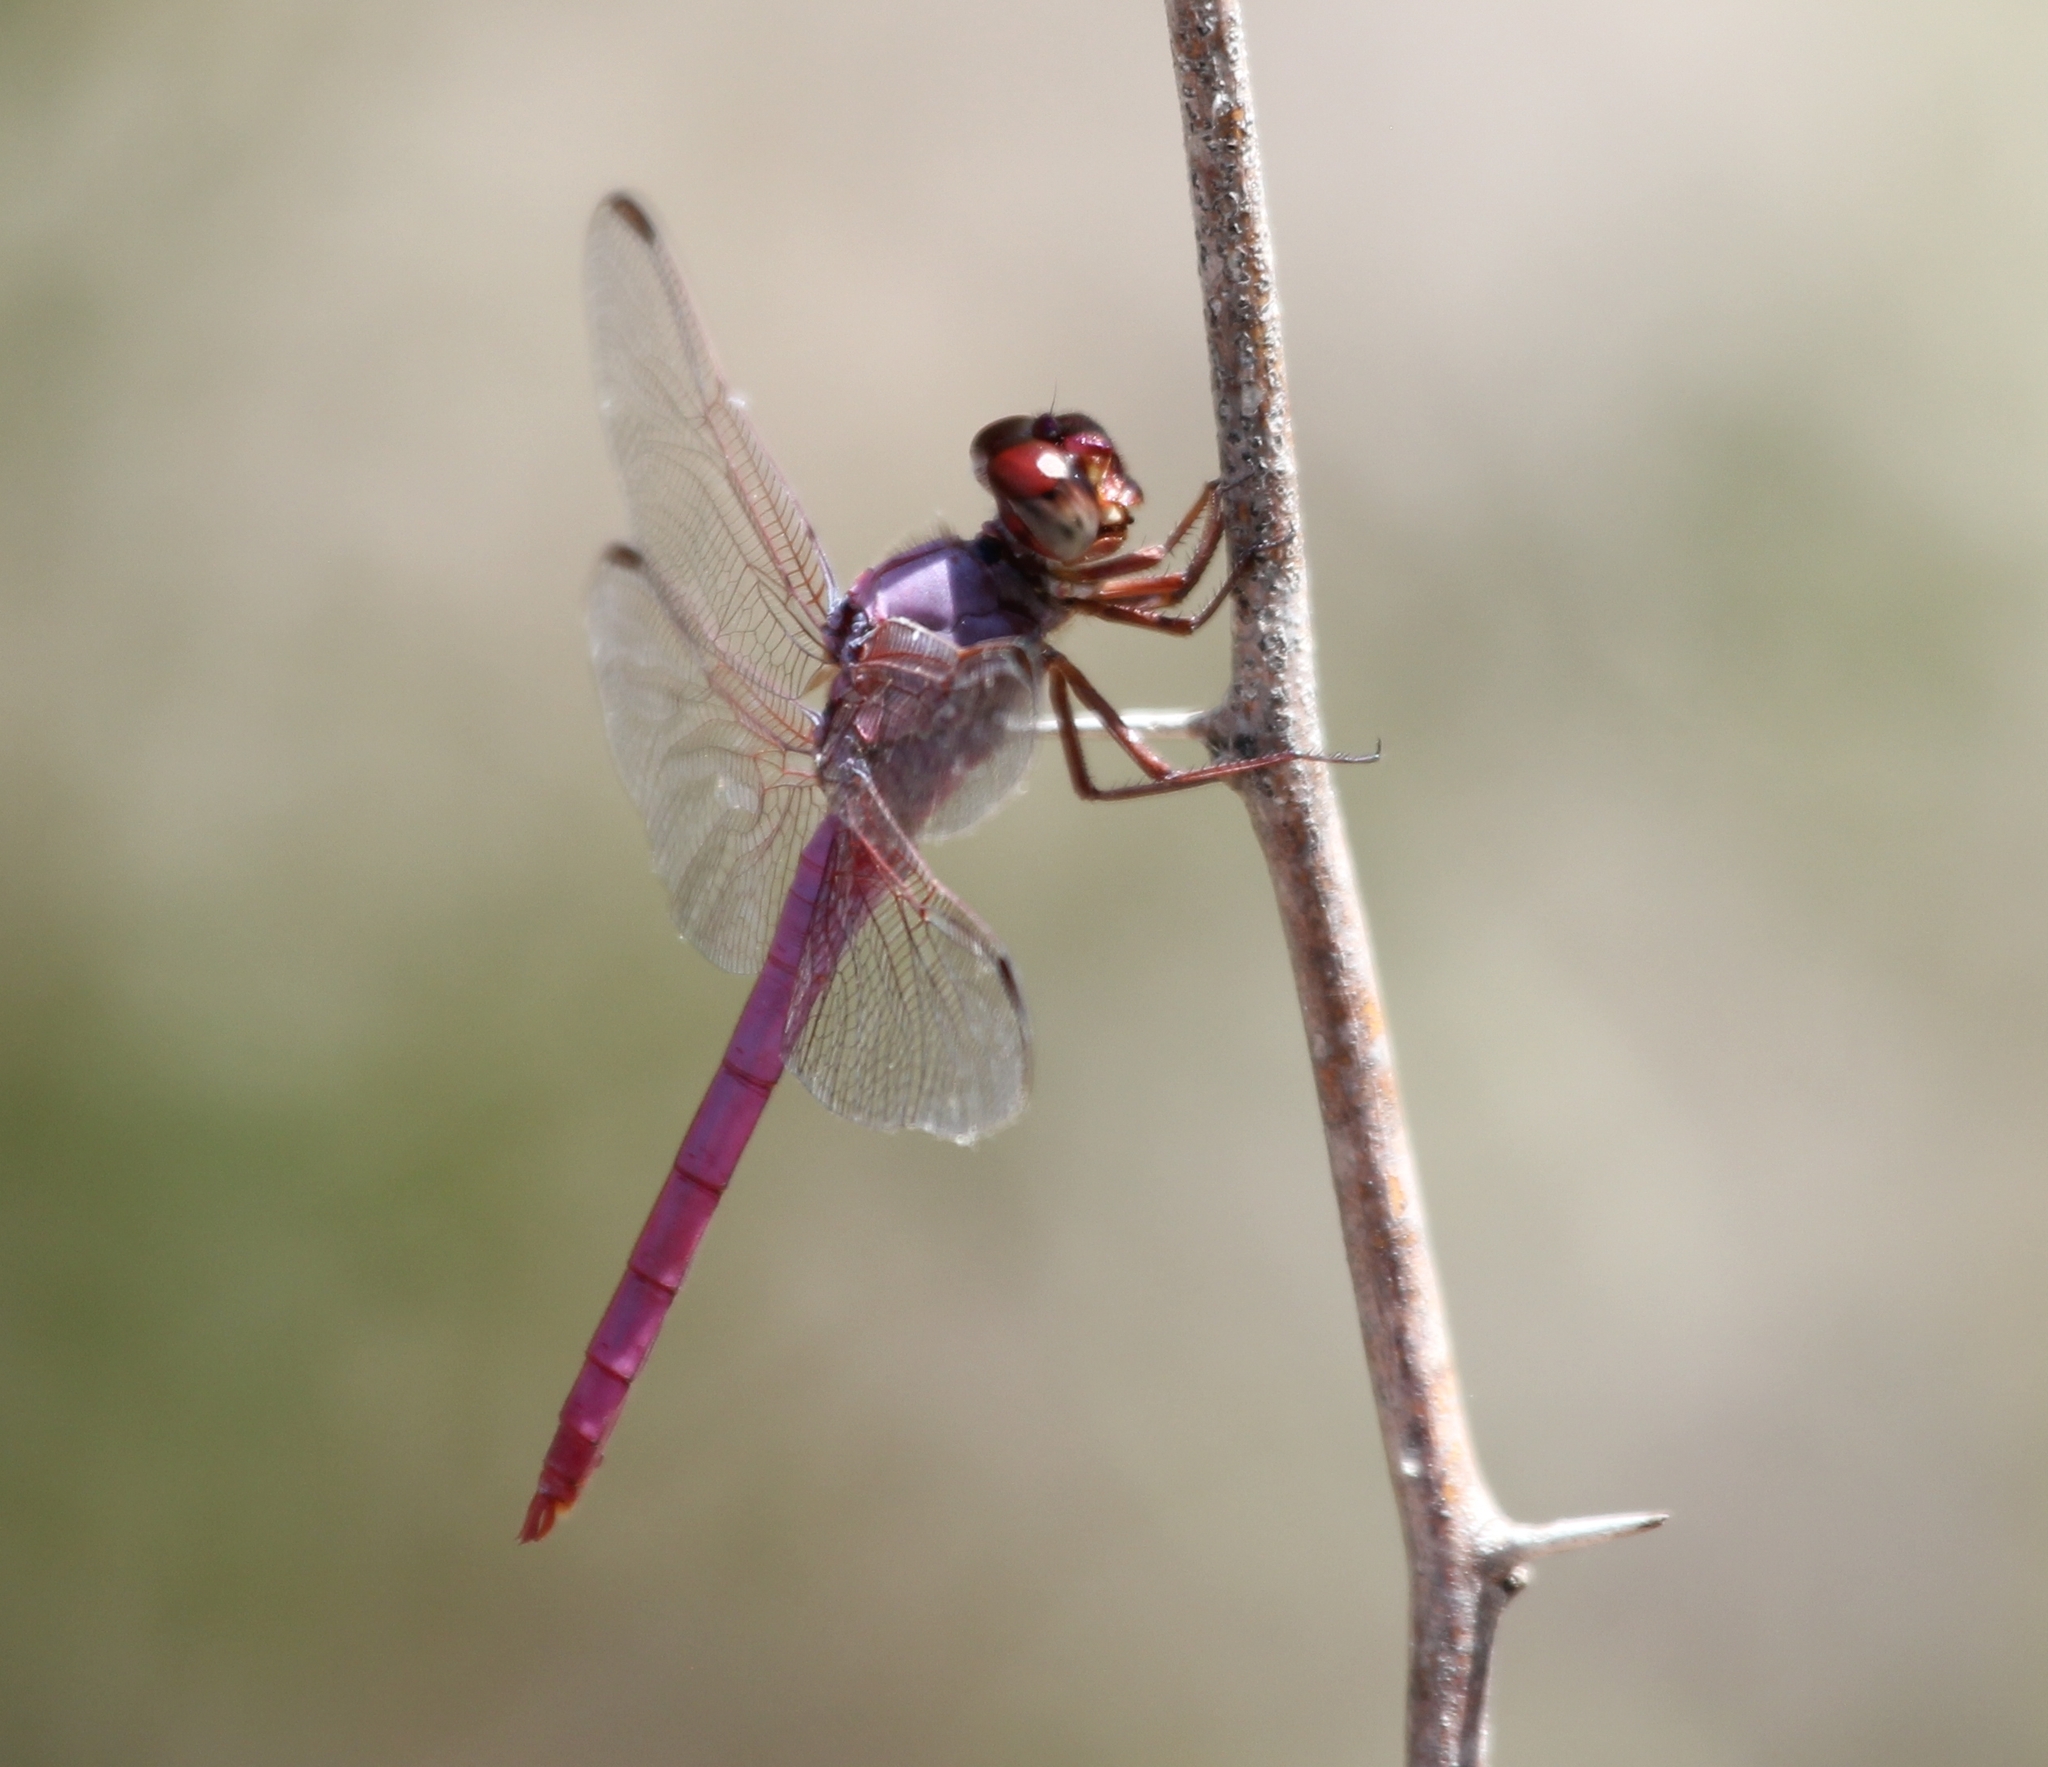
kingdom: Animalia
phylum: Arthropoda
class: Insecta
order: Odonata
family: Libellulidae
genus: Orthemis
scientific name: Orthemis ferruginea
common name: Roseate skimmer
